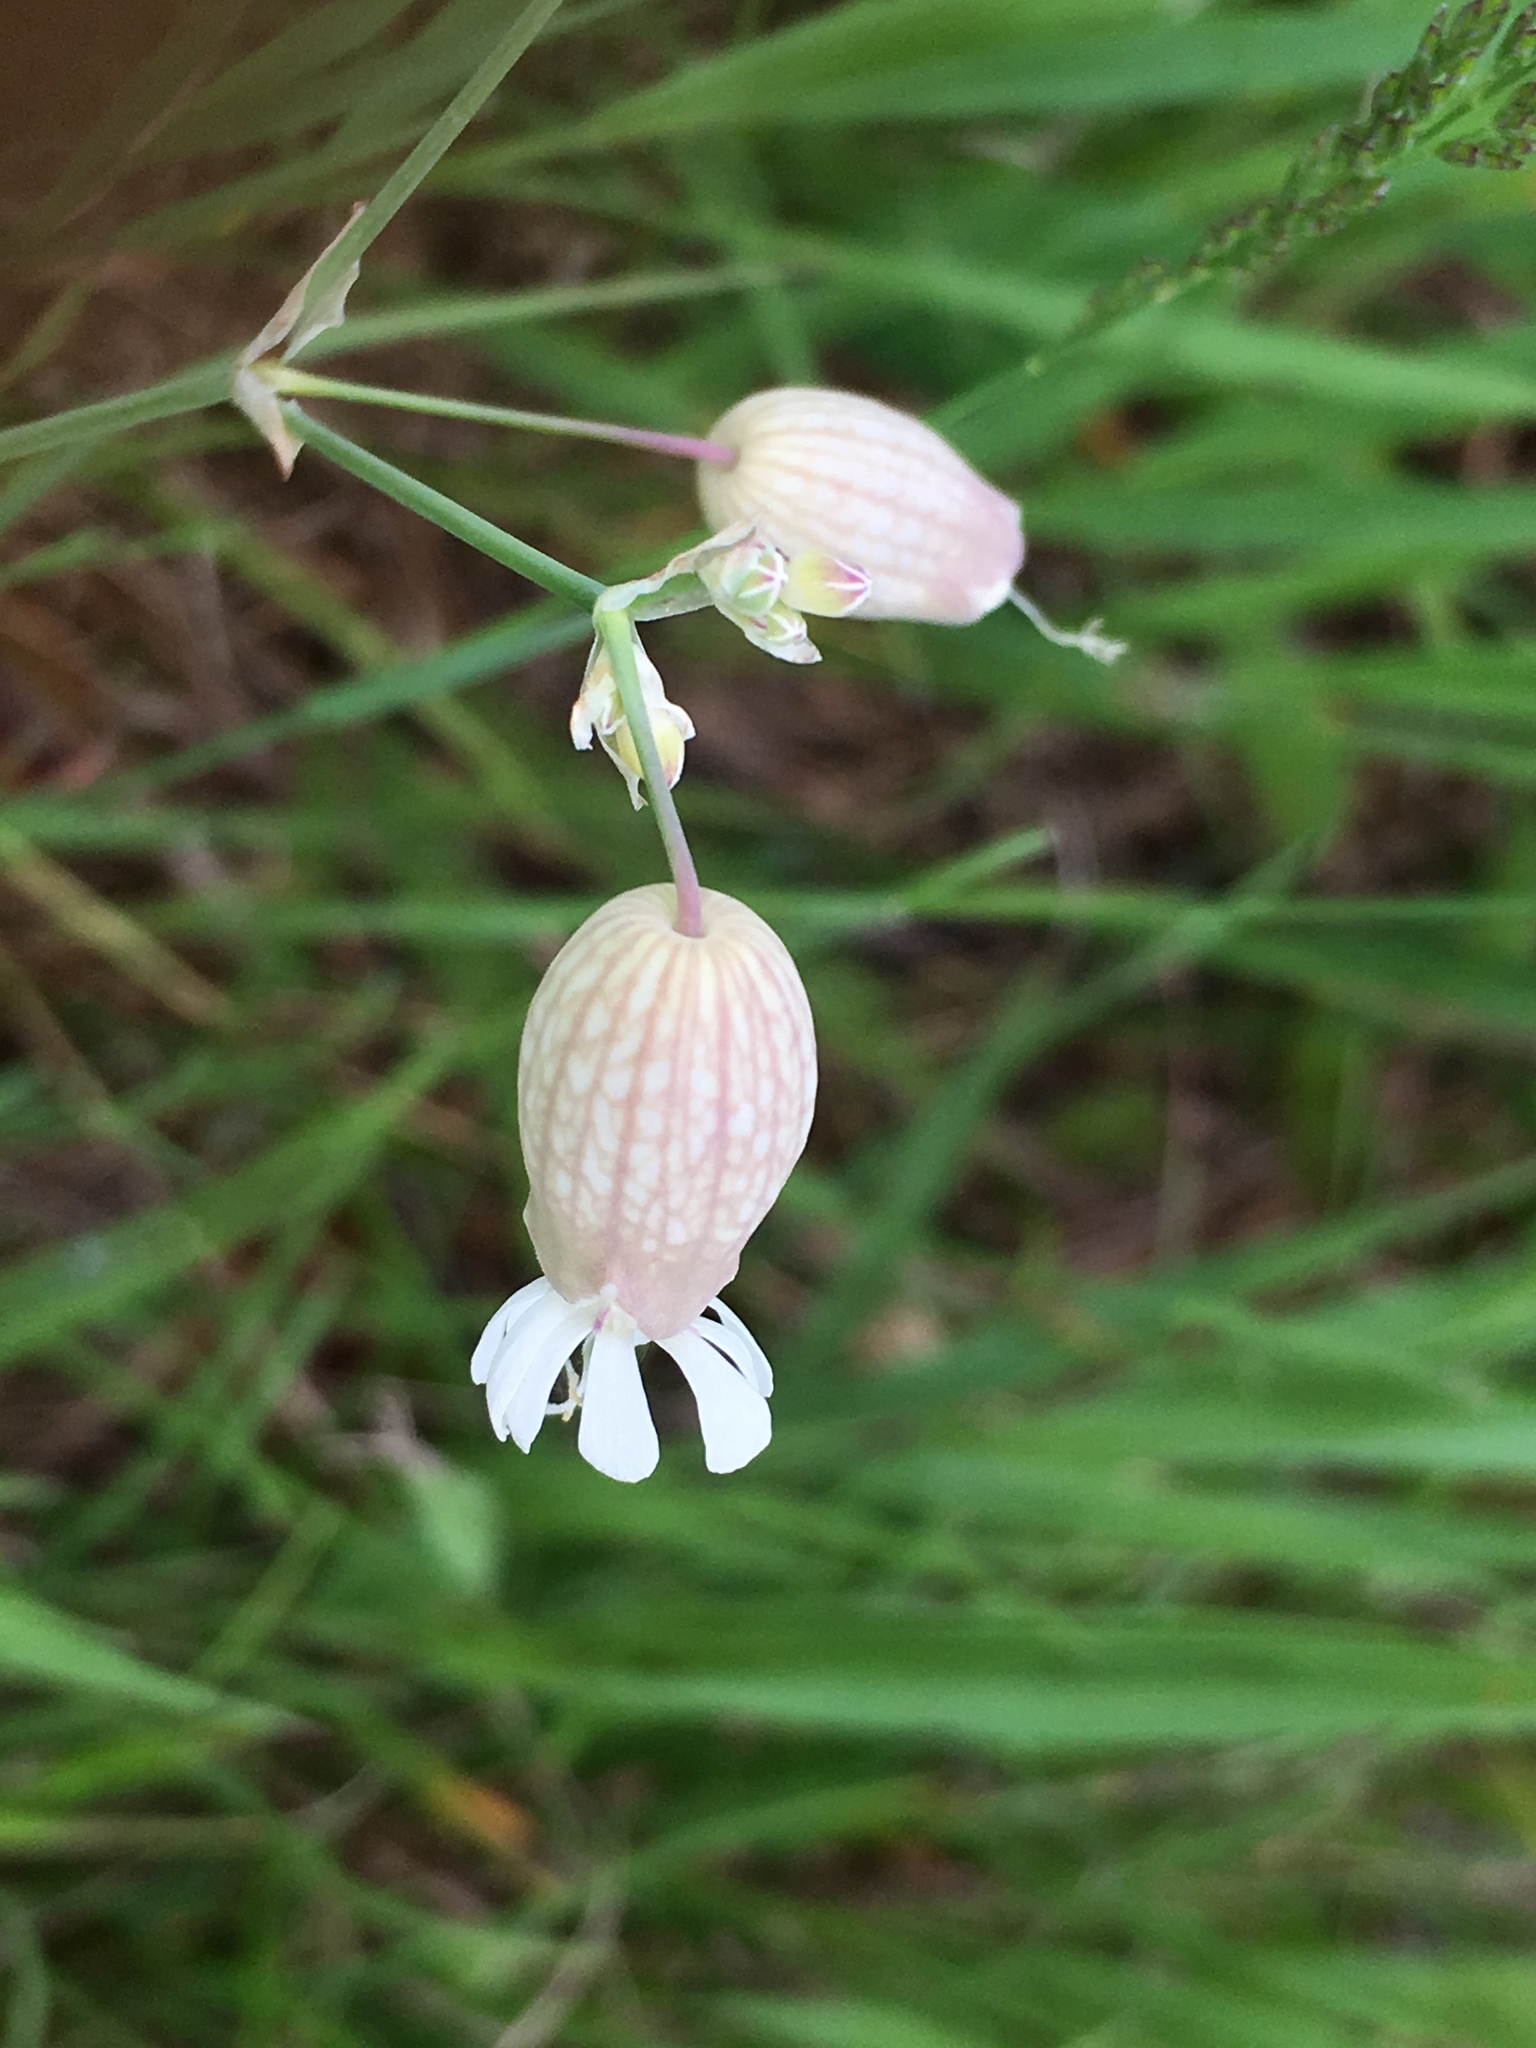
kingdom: Plantae
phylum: Tracheophyta
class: Magnoliopsida
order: Caryophyllales
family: Caryophyllaceae
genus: Silene
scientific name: Silene vulgaris
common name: Bladder campion
